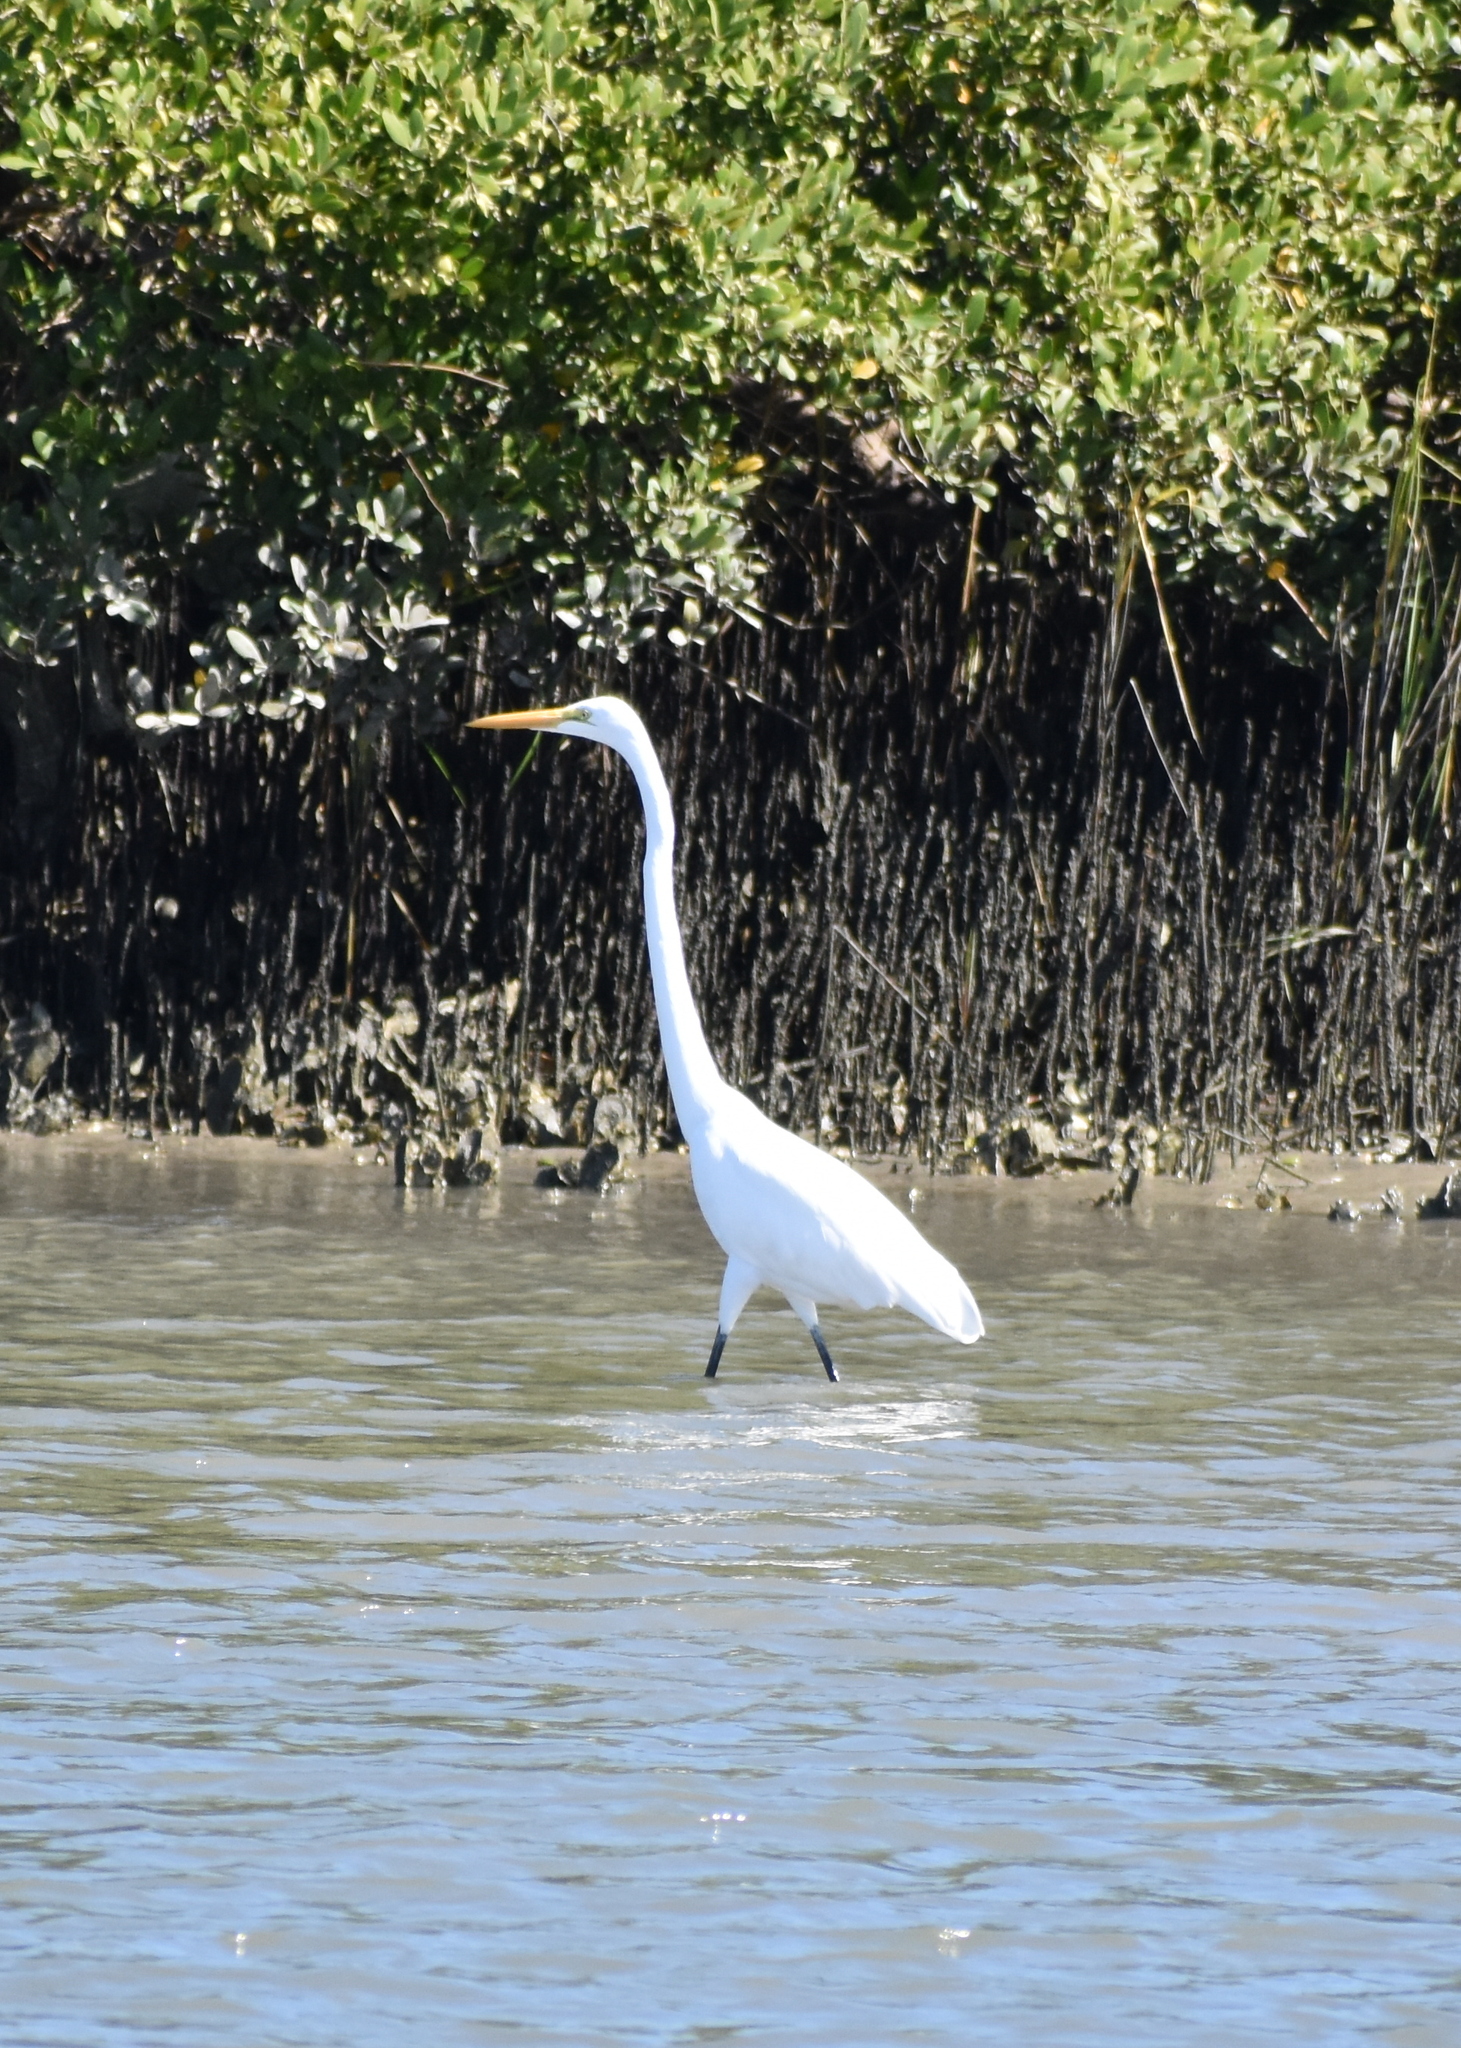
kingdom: Animalia
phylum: Chordata
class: Aves
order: Pelecaniformes
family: Ardeidae
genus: Ardea
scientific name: Ardea alba
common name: Great egret
